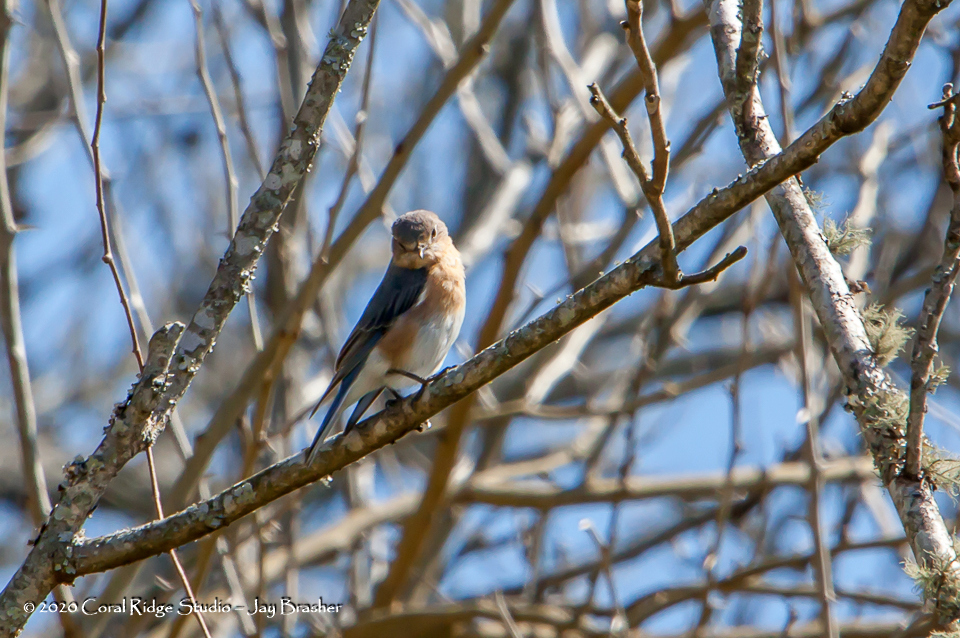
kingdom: Animalia
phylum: Chordata
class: Aves
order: Passeriformes
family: Turdidae
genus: Sialia
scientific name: Sialia sialis
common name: Eastern bluebird
